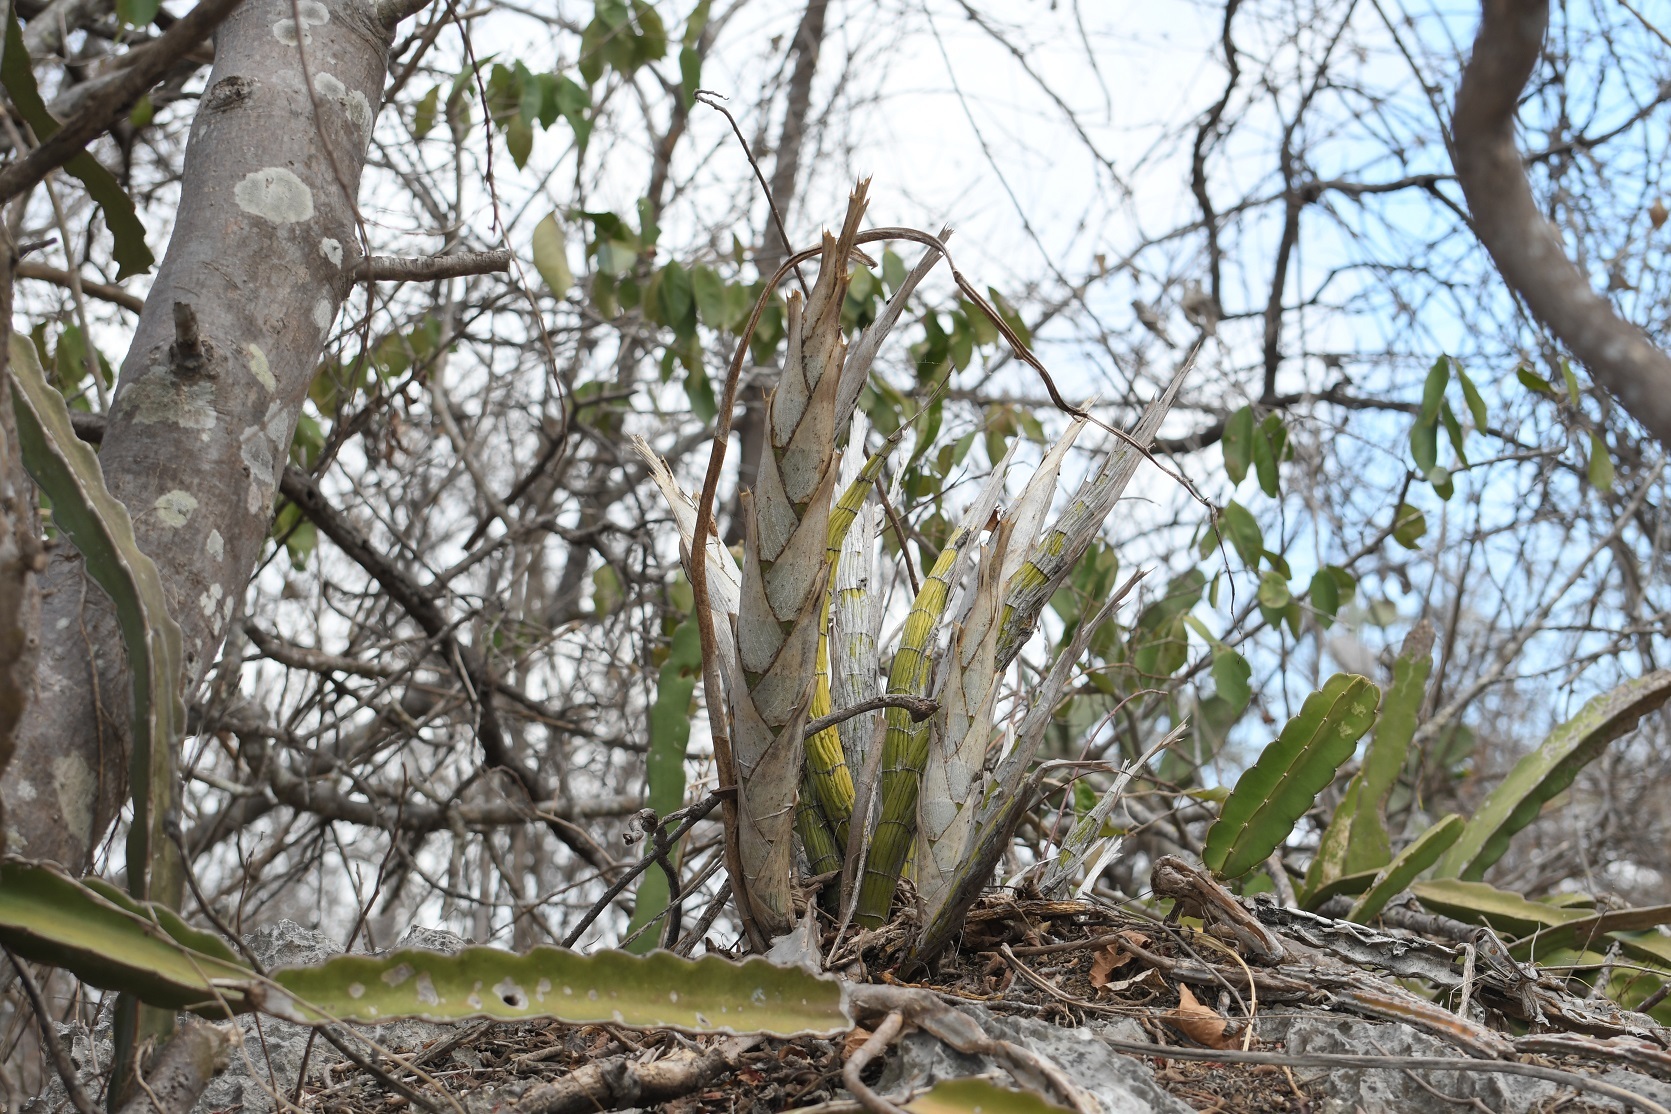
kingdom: Plantae
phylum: Tracheophyta
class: Liliopsida
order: Asparagales
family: Orchidaceae
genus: Cyrtopodium
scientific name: Cyrtopodium macrobulbon
